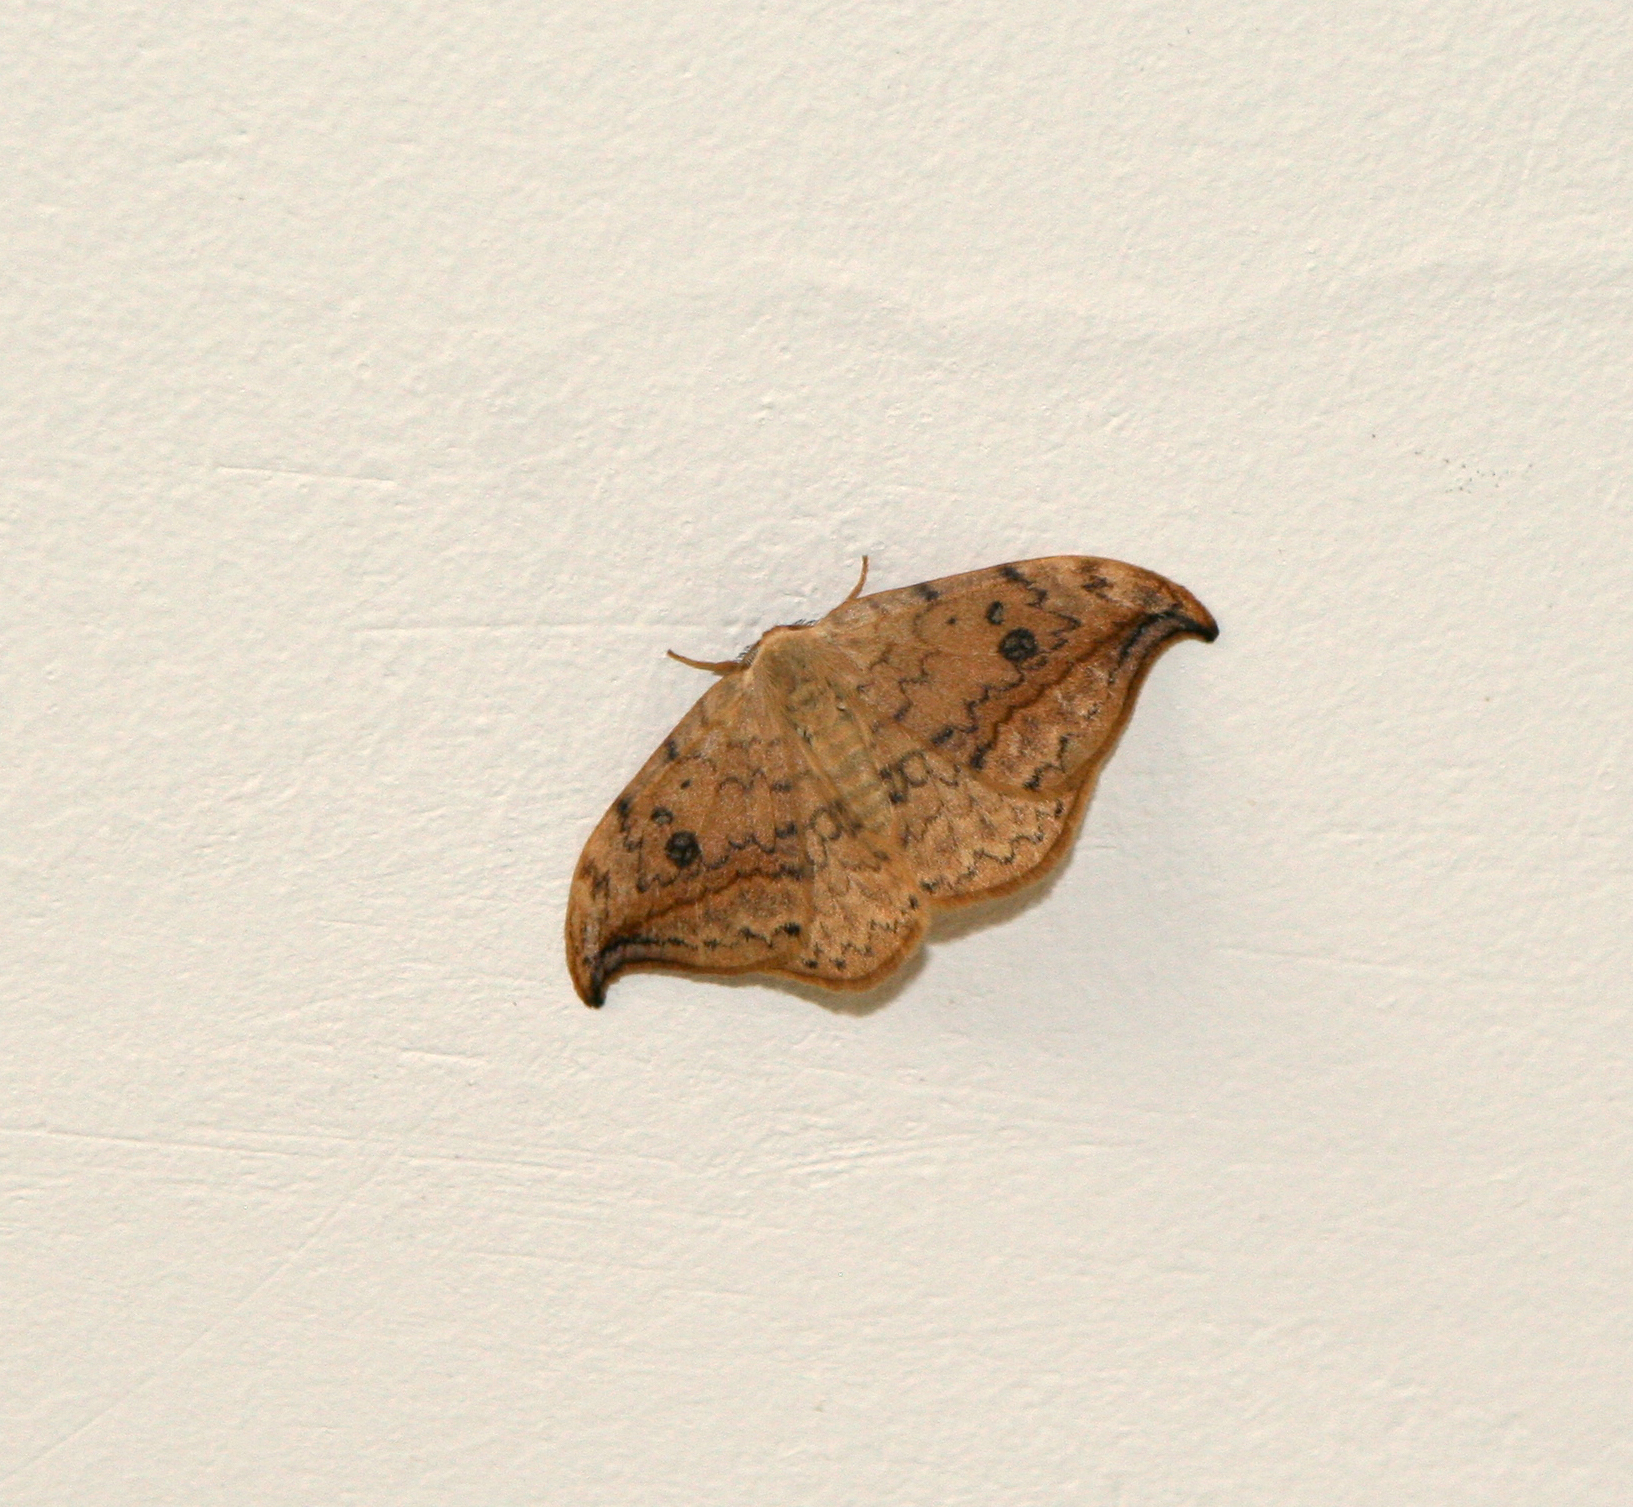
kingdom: Animalia
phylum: Arthropoda
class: Insecta
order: Lepidoptera
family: Drepanidae
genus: Drepana
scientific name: Drepana falcataria
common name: Pebble hook-tip
